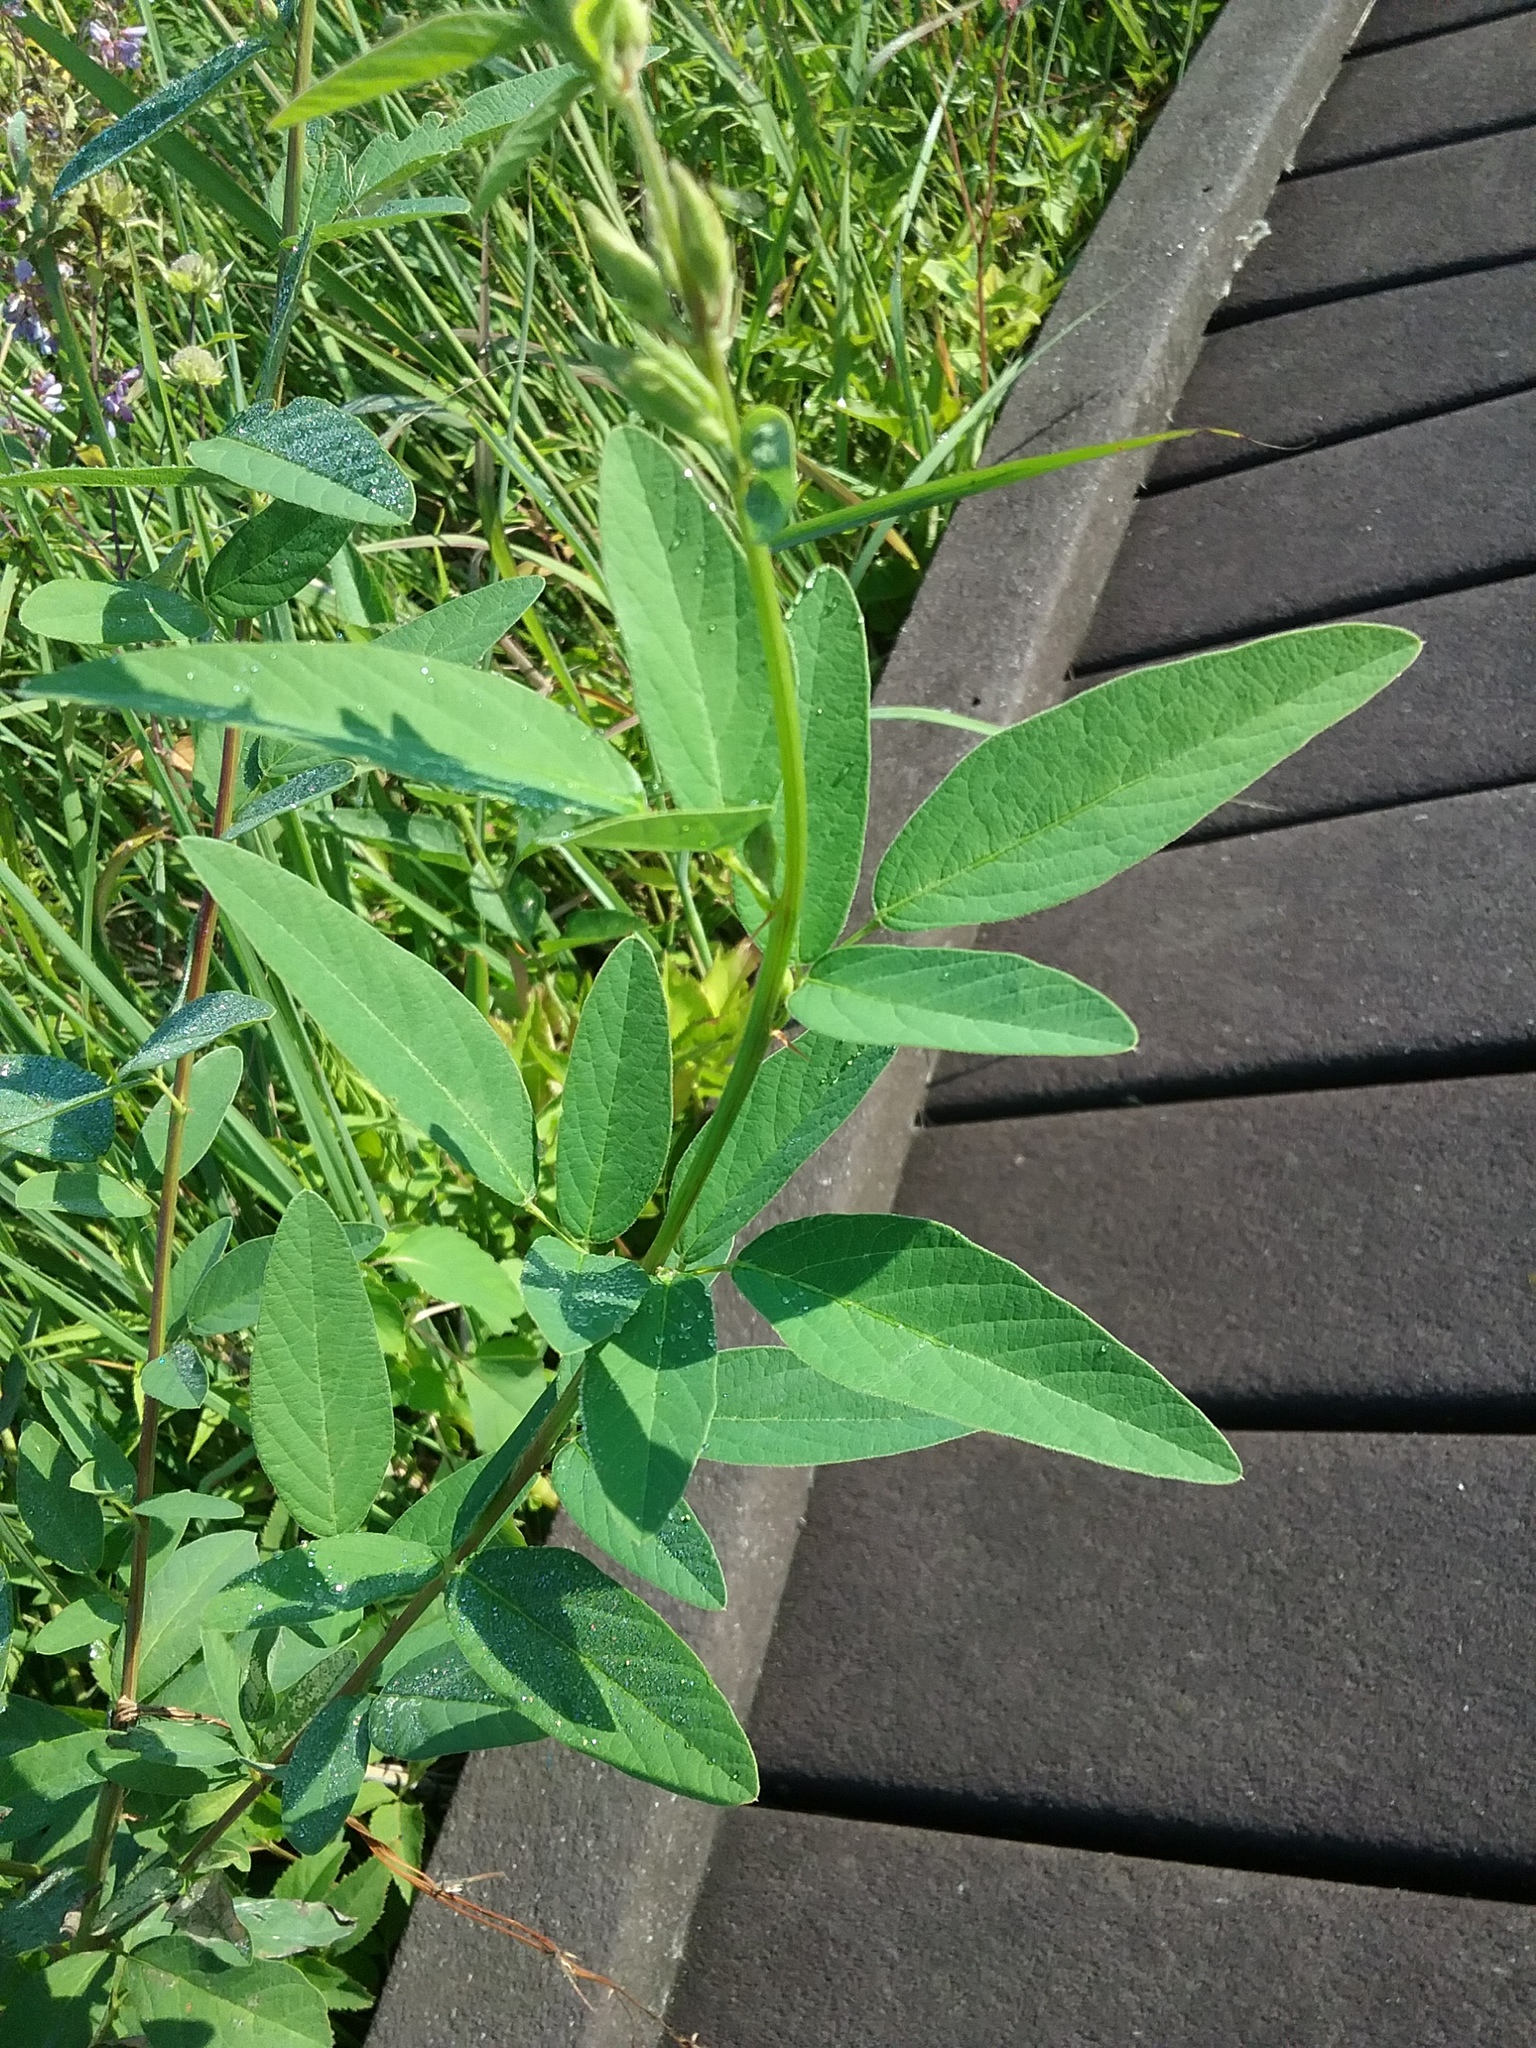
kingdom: Plantae
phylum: Tracheophyta
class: Magnoliopsida
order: Fabales
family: Fabaceae
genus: Desmodium
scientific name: Desmodium canadense
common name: Canada tick-trefoil
